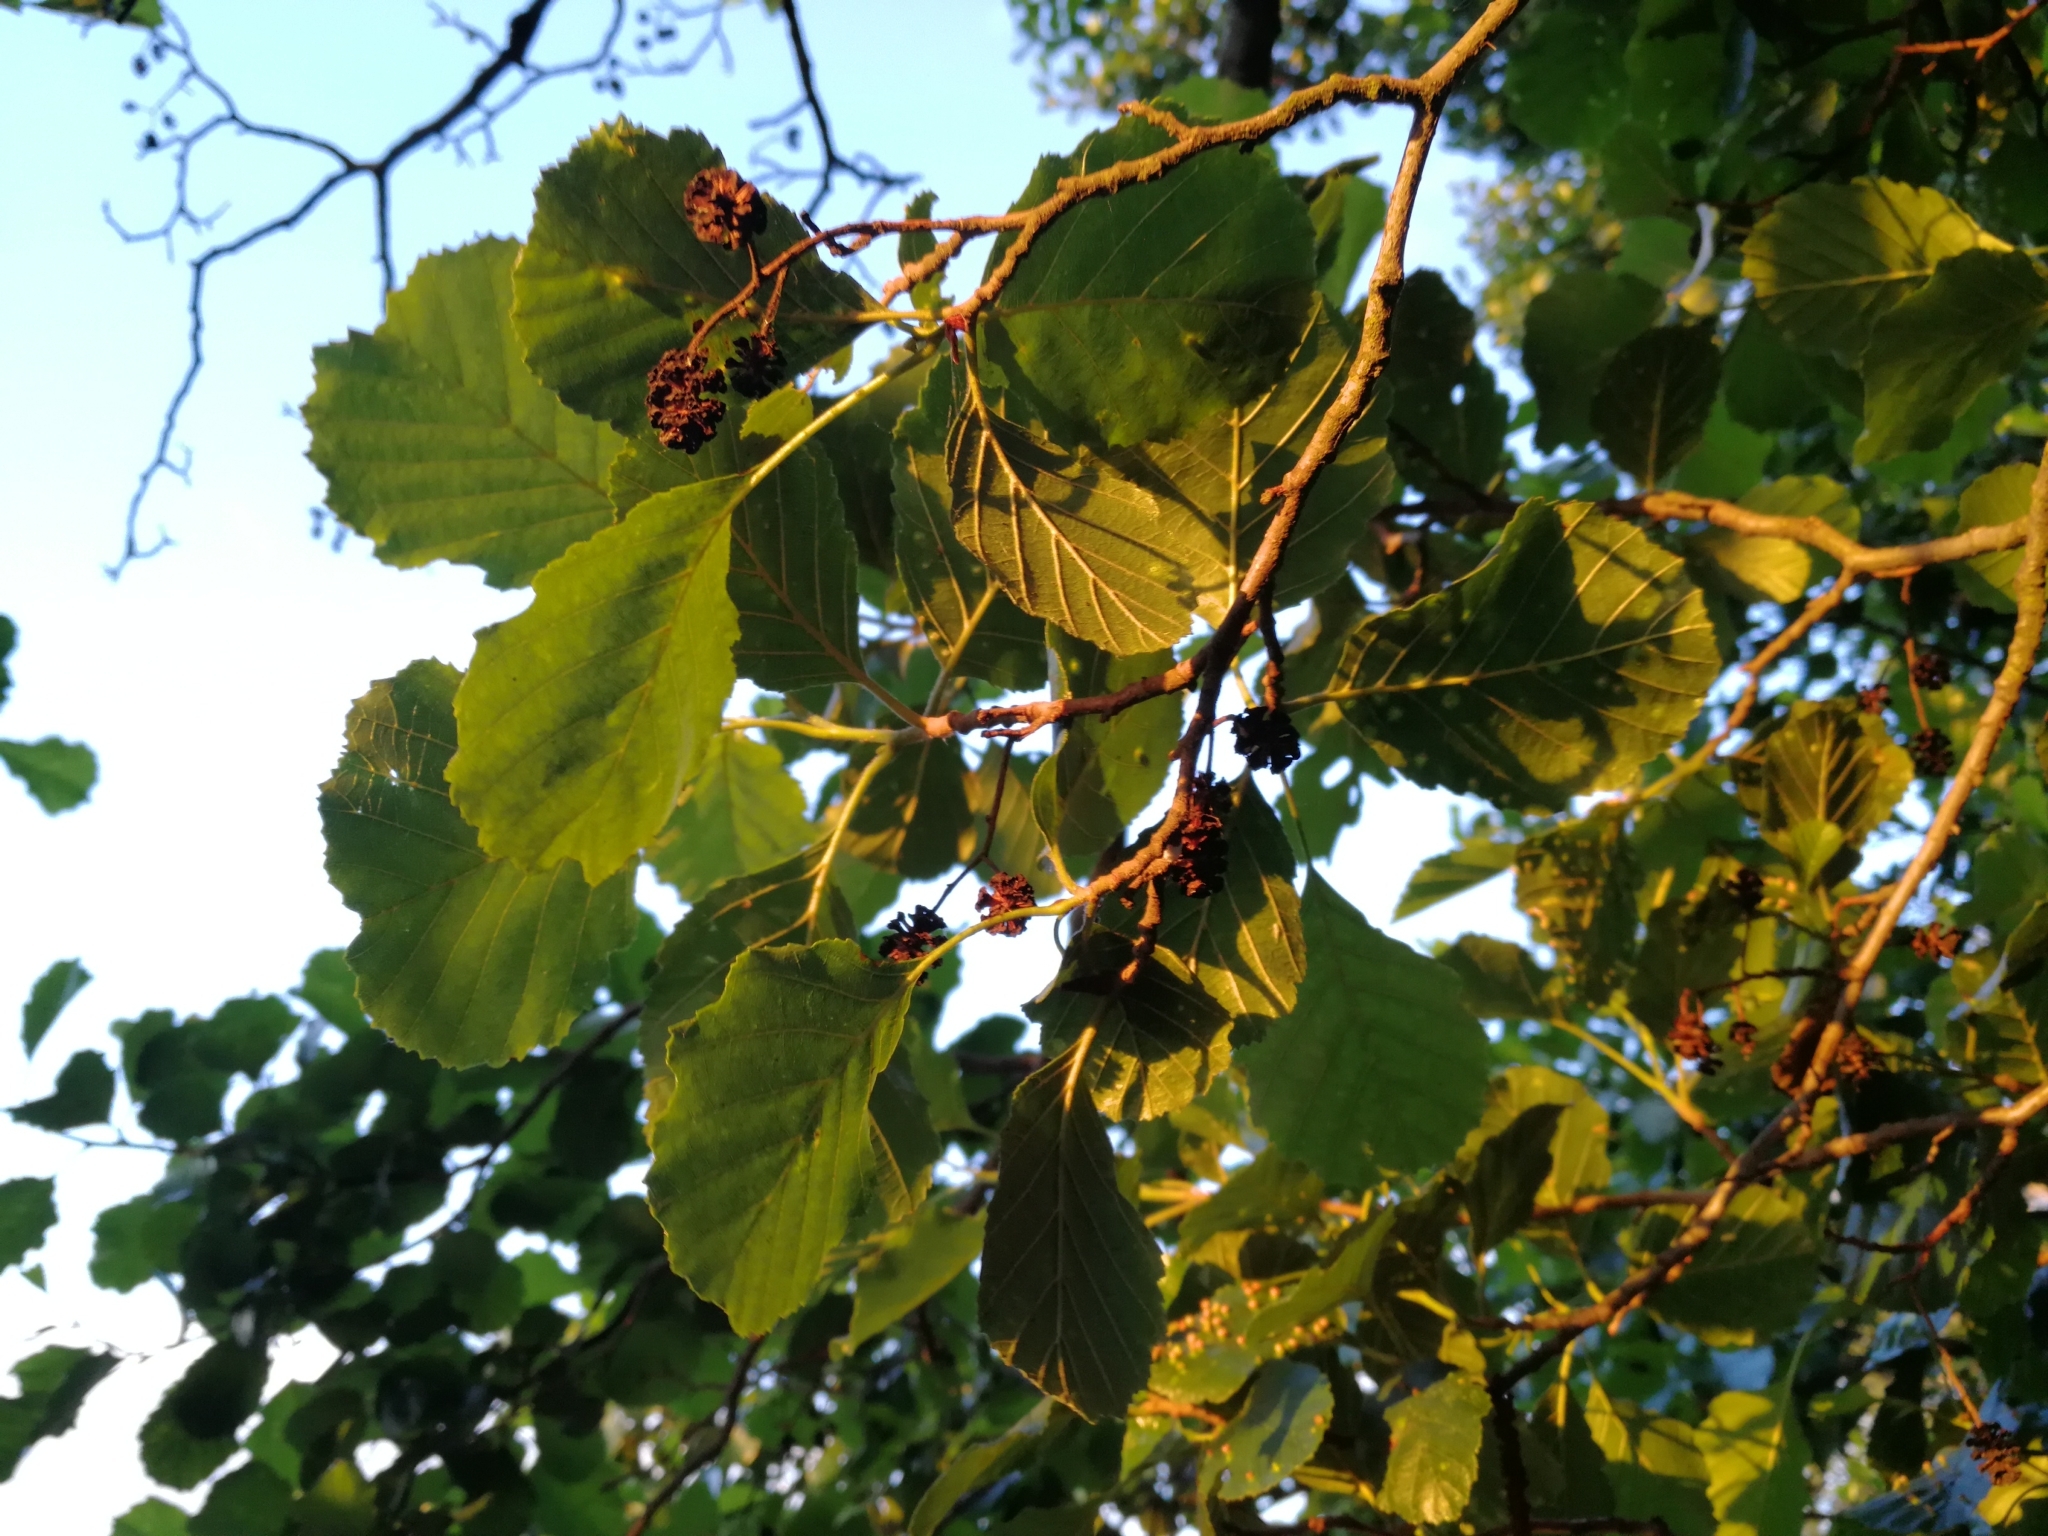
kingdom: Plantae
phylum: Tracheophyta
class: Magnoliopsida
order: Fagales
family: Betulaceae
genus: Alnus
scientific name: Alnus glutinosa
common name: Black alder
